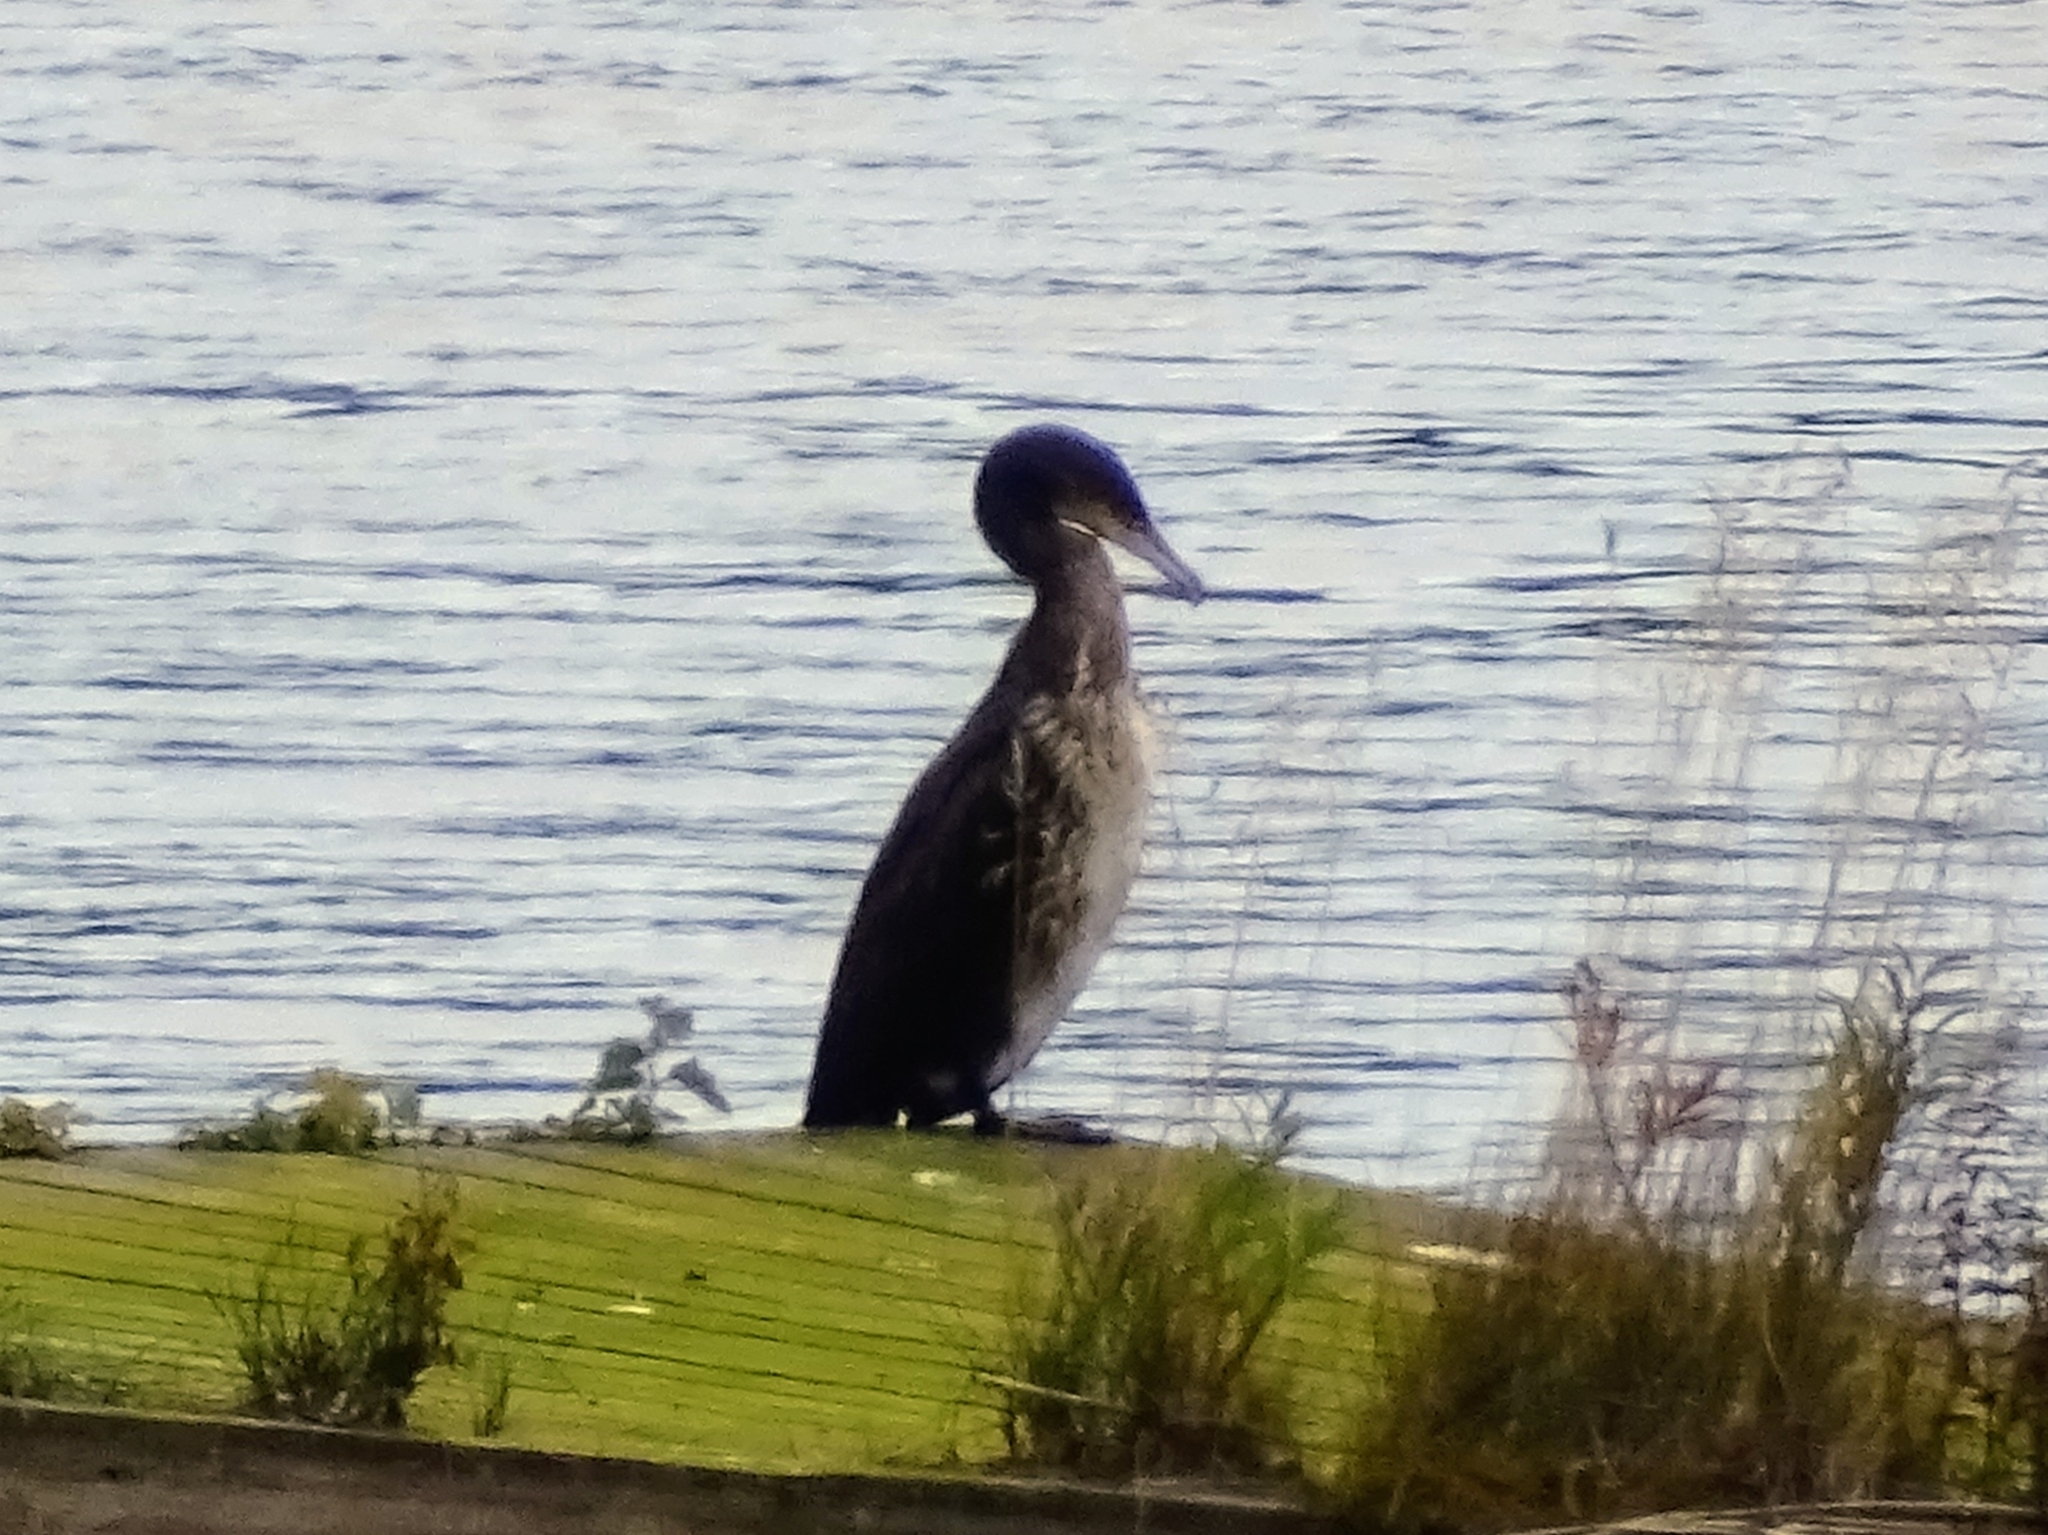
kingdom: Animalia
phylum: Chordata
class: Aves
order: Suliformes
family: Phalacrocoracidae
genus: Phalacrocorax
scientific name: Phalacrocorax carbo
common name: Great cormorant
